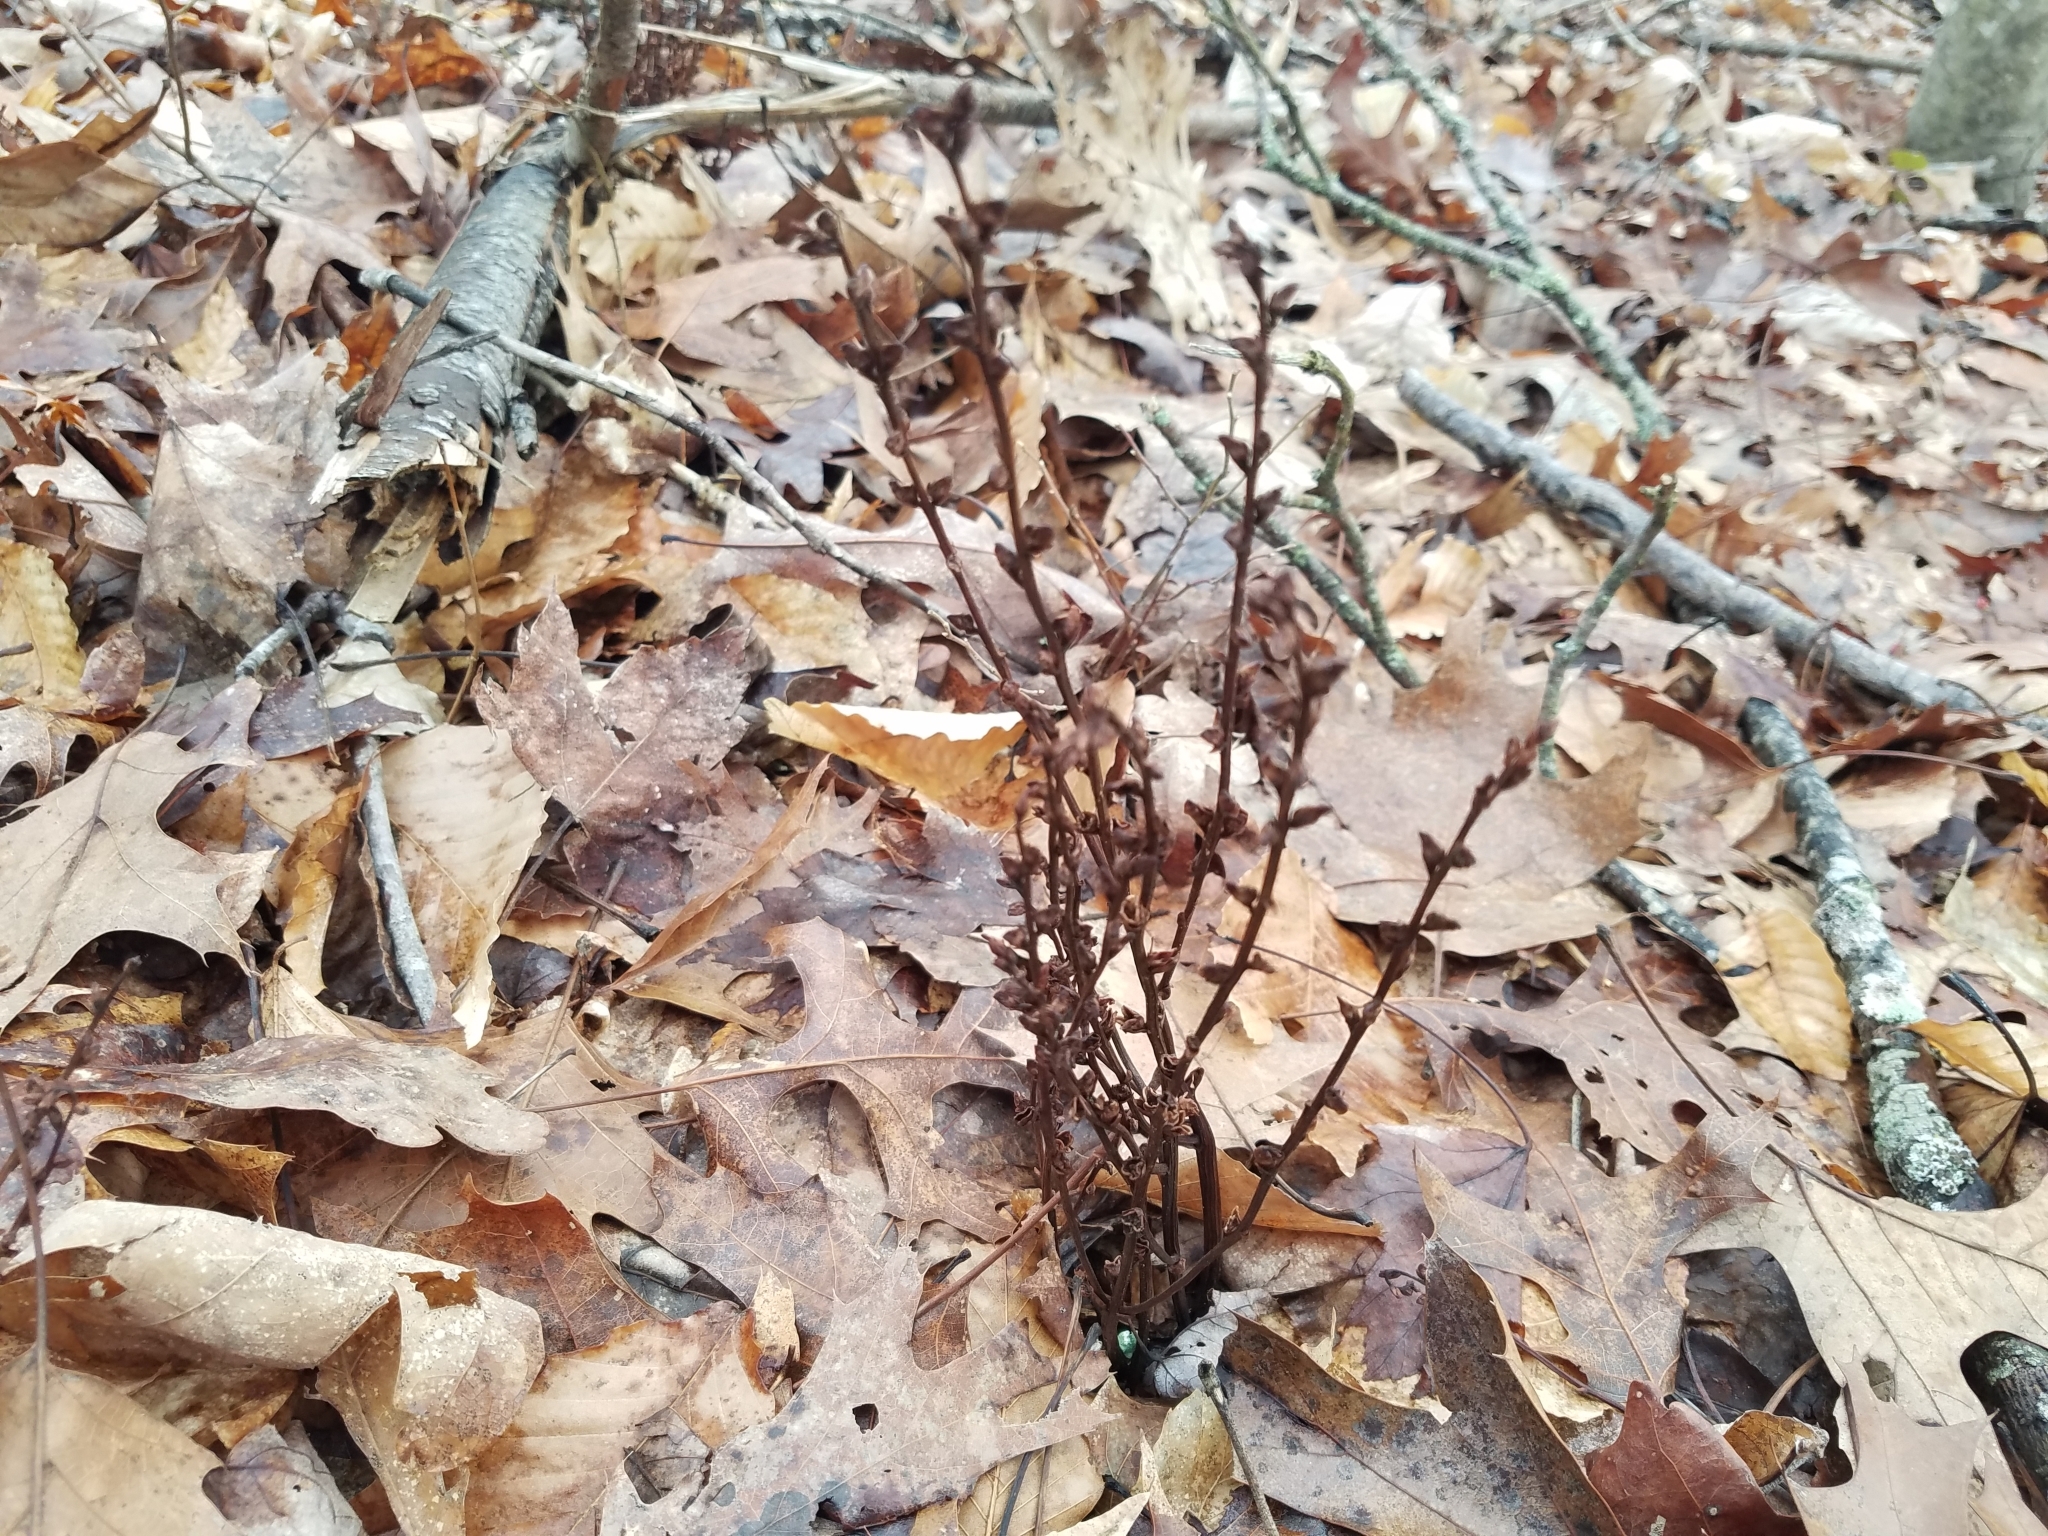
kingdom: Plantae
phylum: Tracheophyta
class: Magnoliopsida
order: Lamiales
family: Orobanchaceae
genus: Epifagus
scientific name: Epifagus virginiana
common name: Beechdrops
